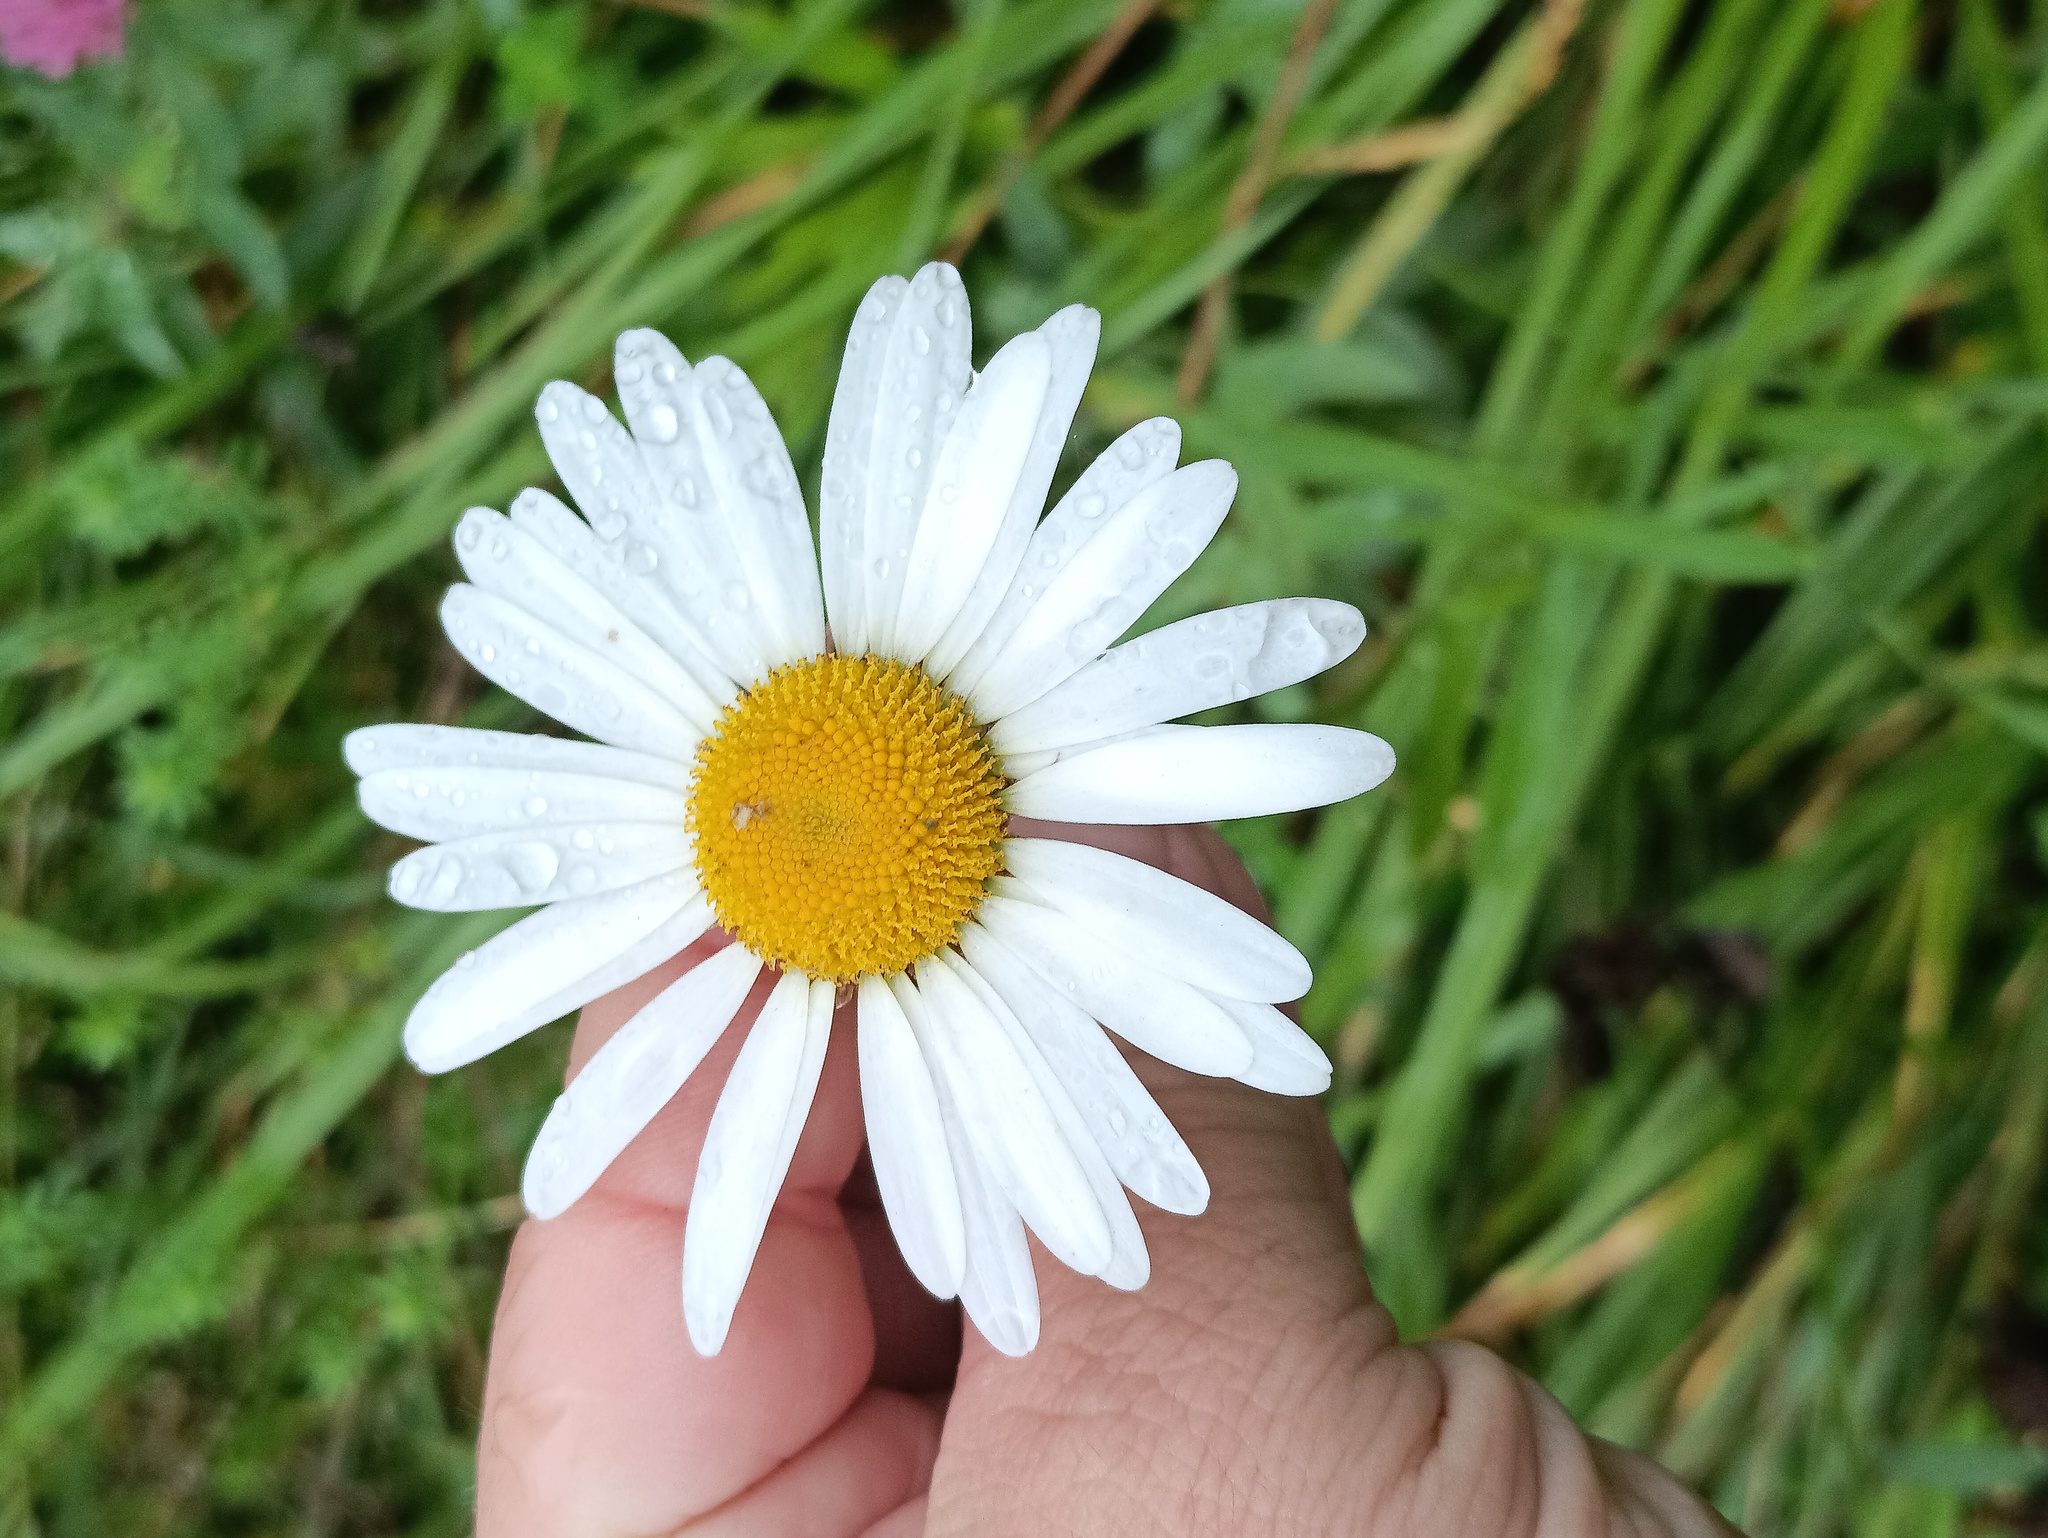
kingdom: Plantae
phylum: Tracheophyta
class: Magnoliopsida
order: Asterales
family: Asteraceae
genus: Leucanthemum
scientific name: Leucanthemum vulgare
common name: Oxeye daisy
